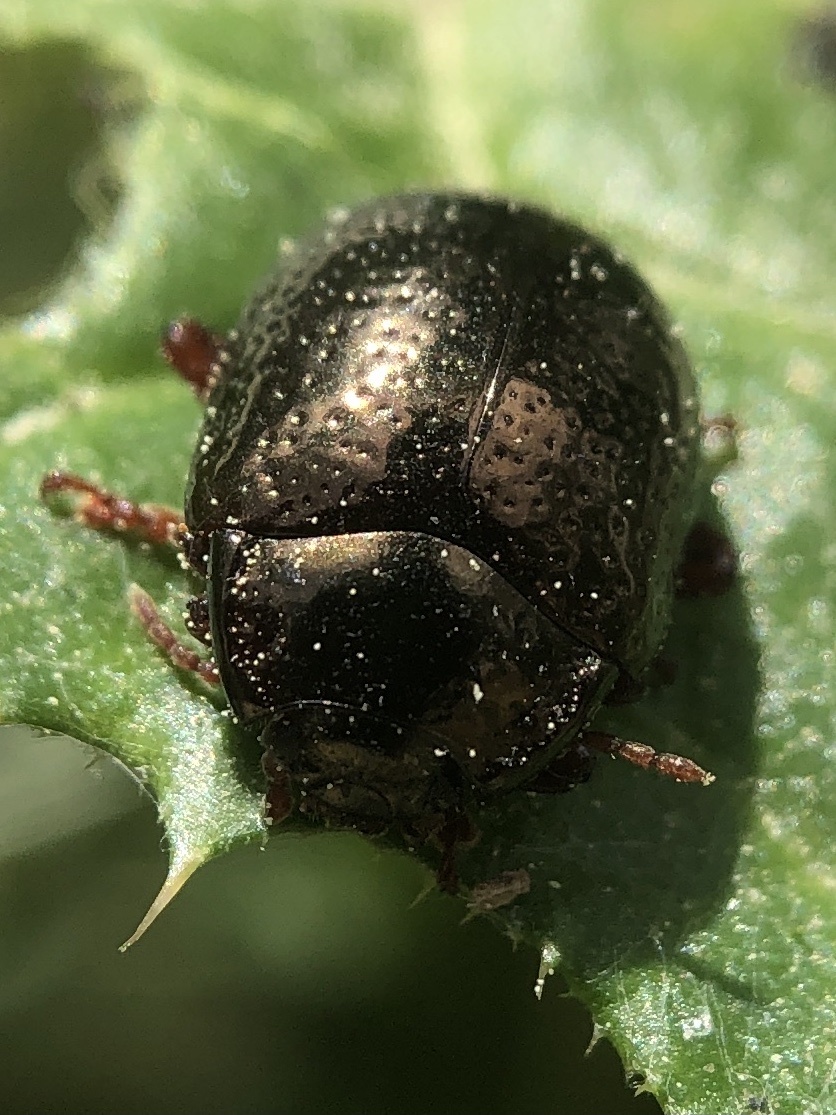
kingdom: Animalia
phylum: Arthropoda
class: Insecta
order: Coleoptera
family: Chrysomelidae
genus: Chrysolina
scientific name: Chrysolina bankii
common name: Leaf beetle
